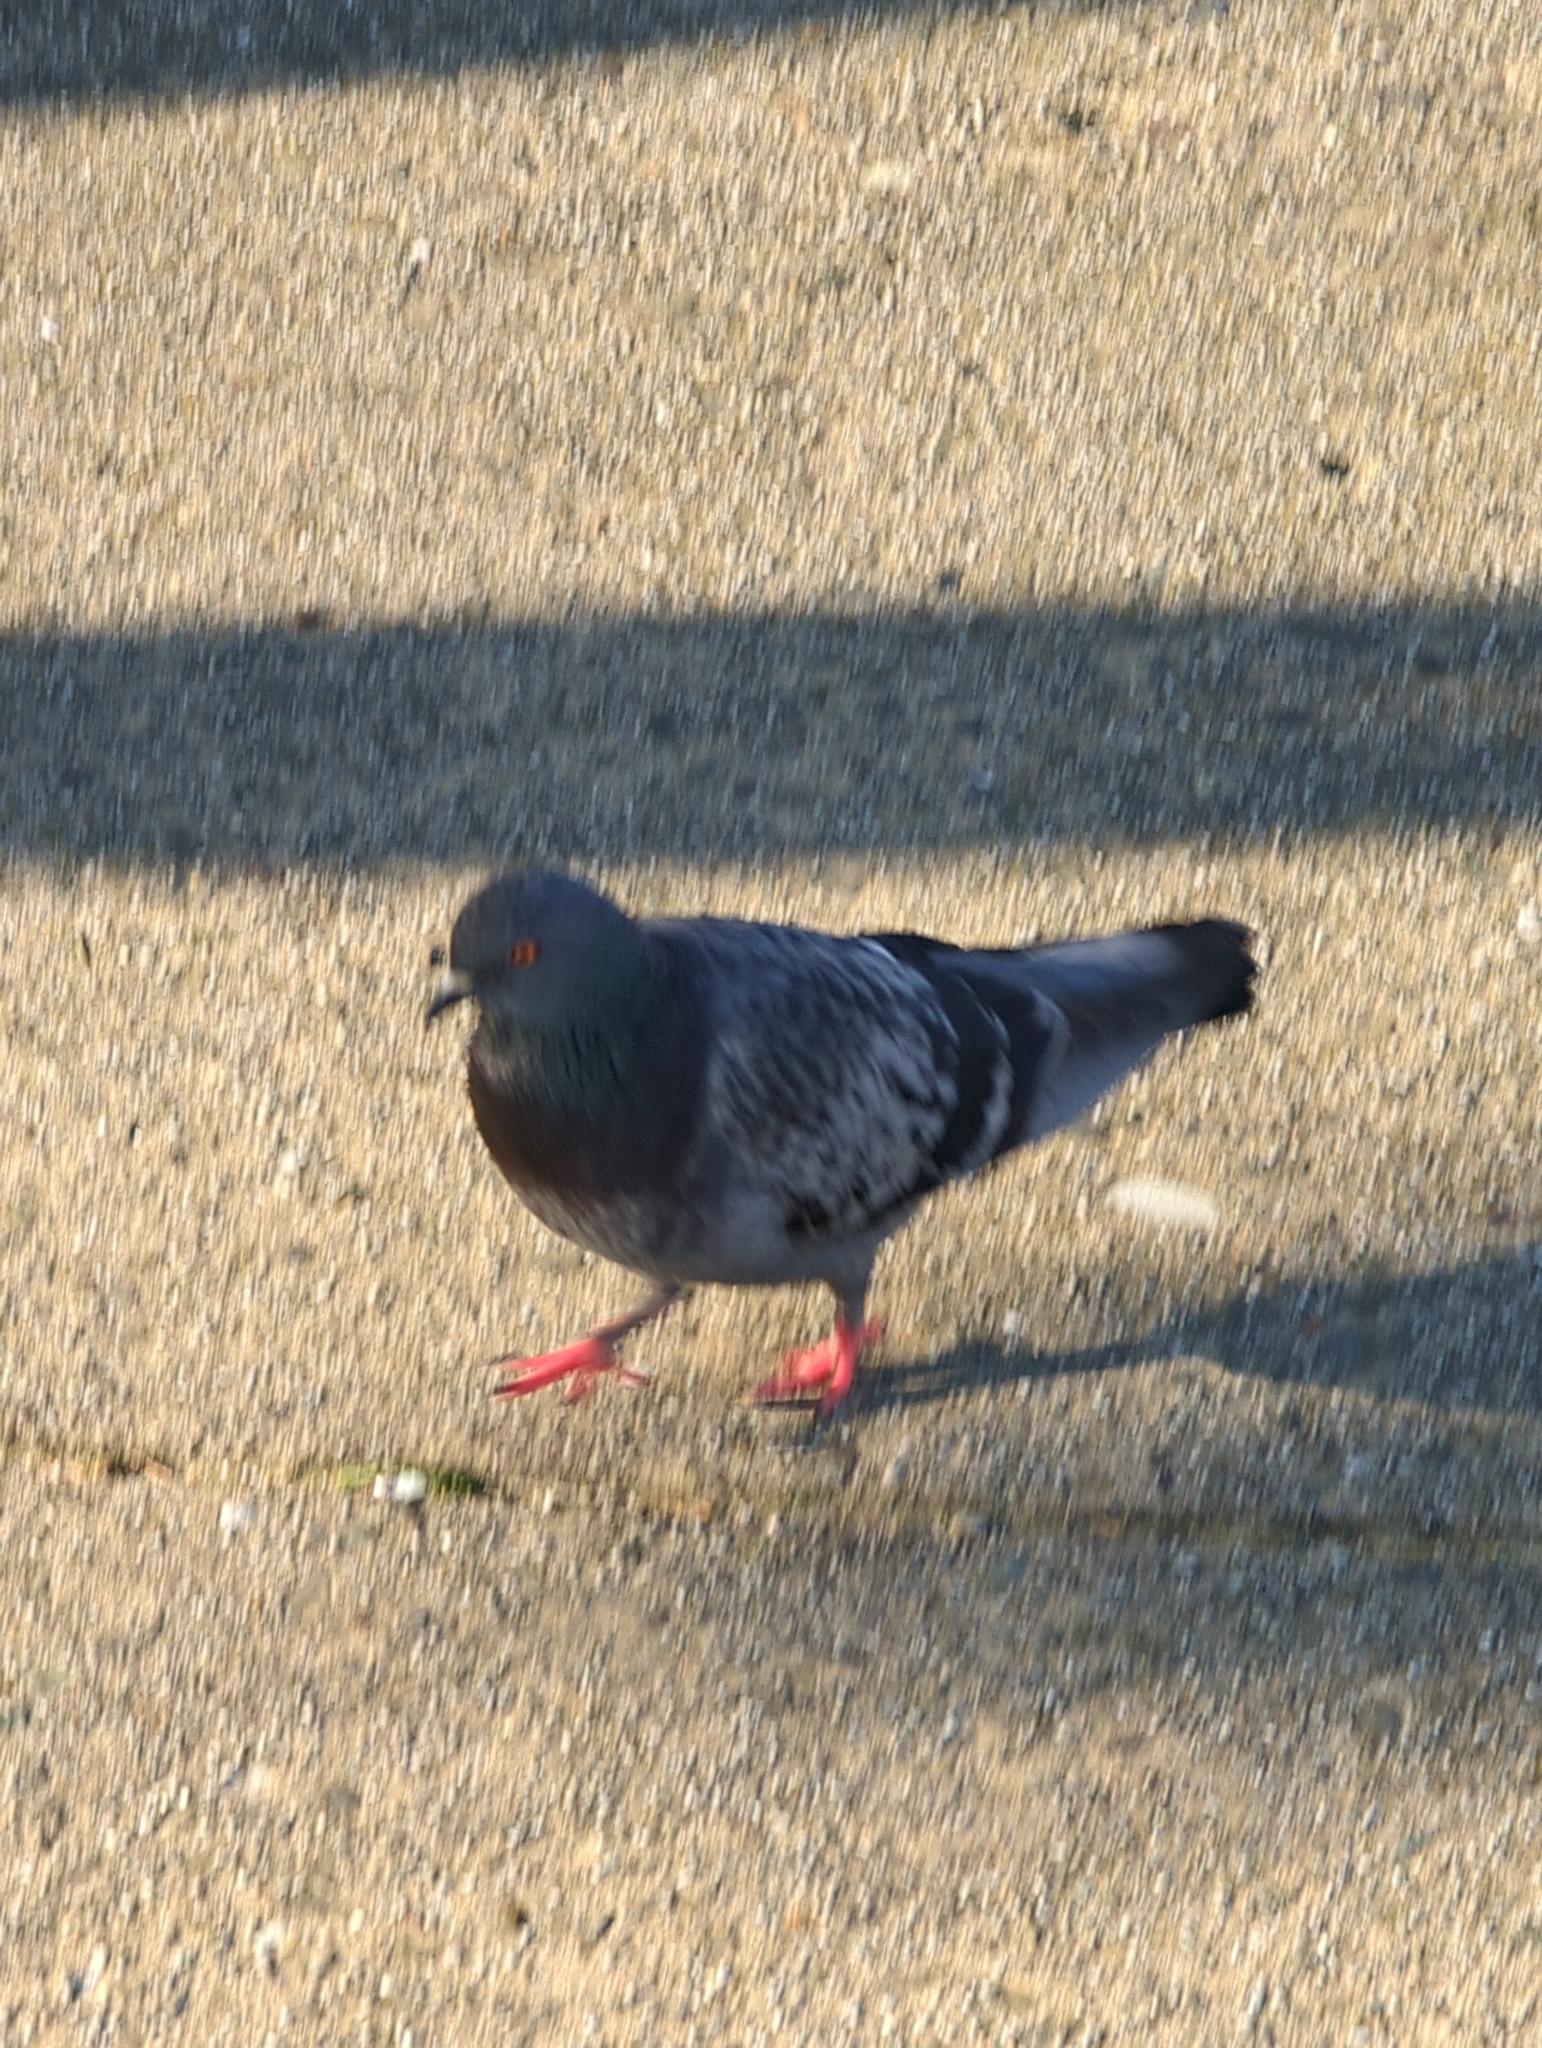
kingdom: Animalia
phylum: Chordata
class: Aves
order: Columbiformes
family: Columbidae
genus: Columba
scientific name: Columba livia
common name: Rock pigeon
